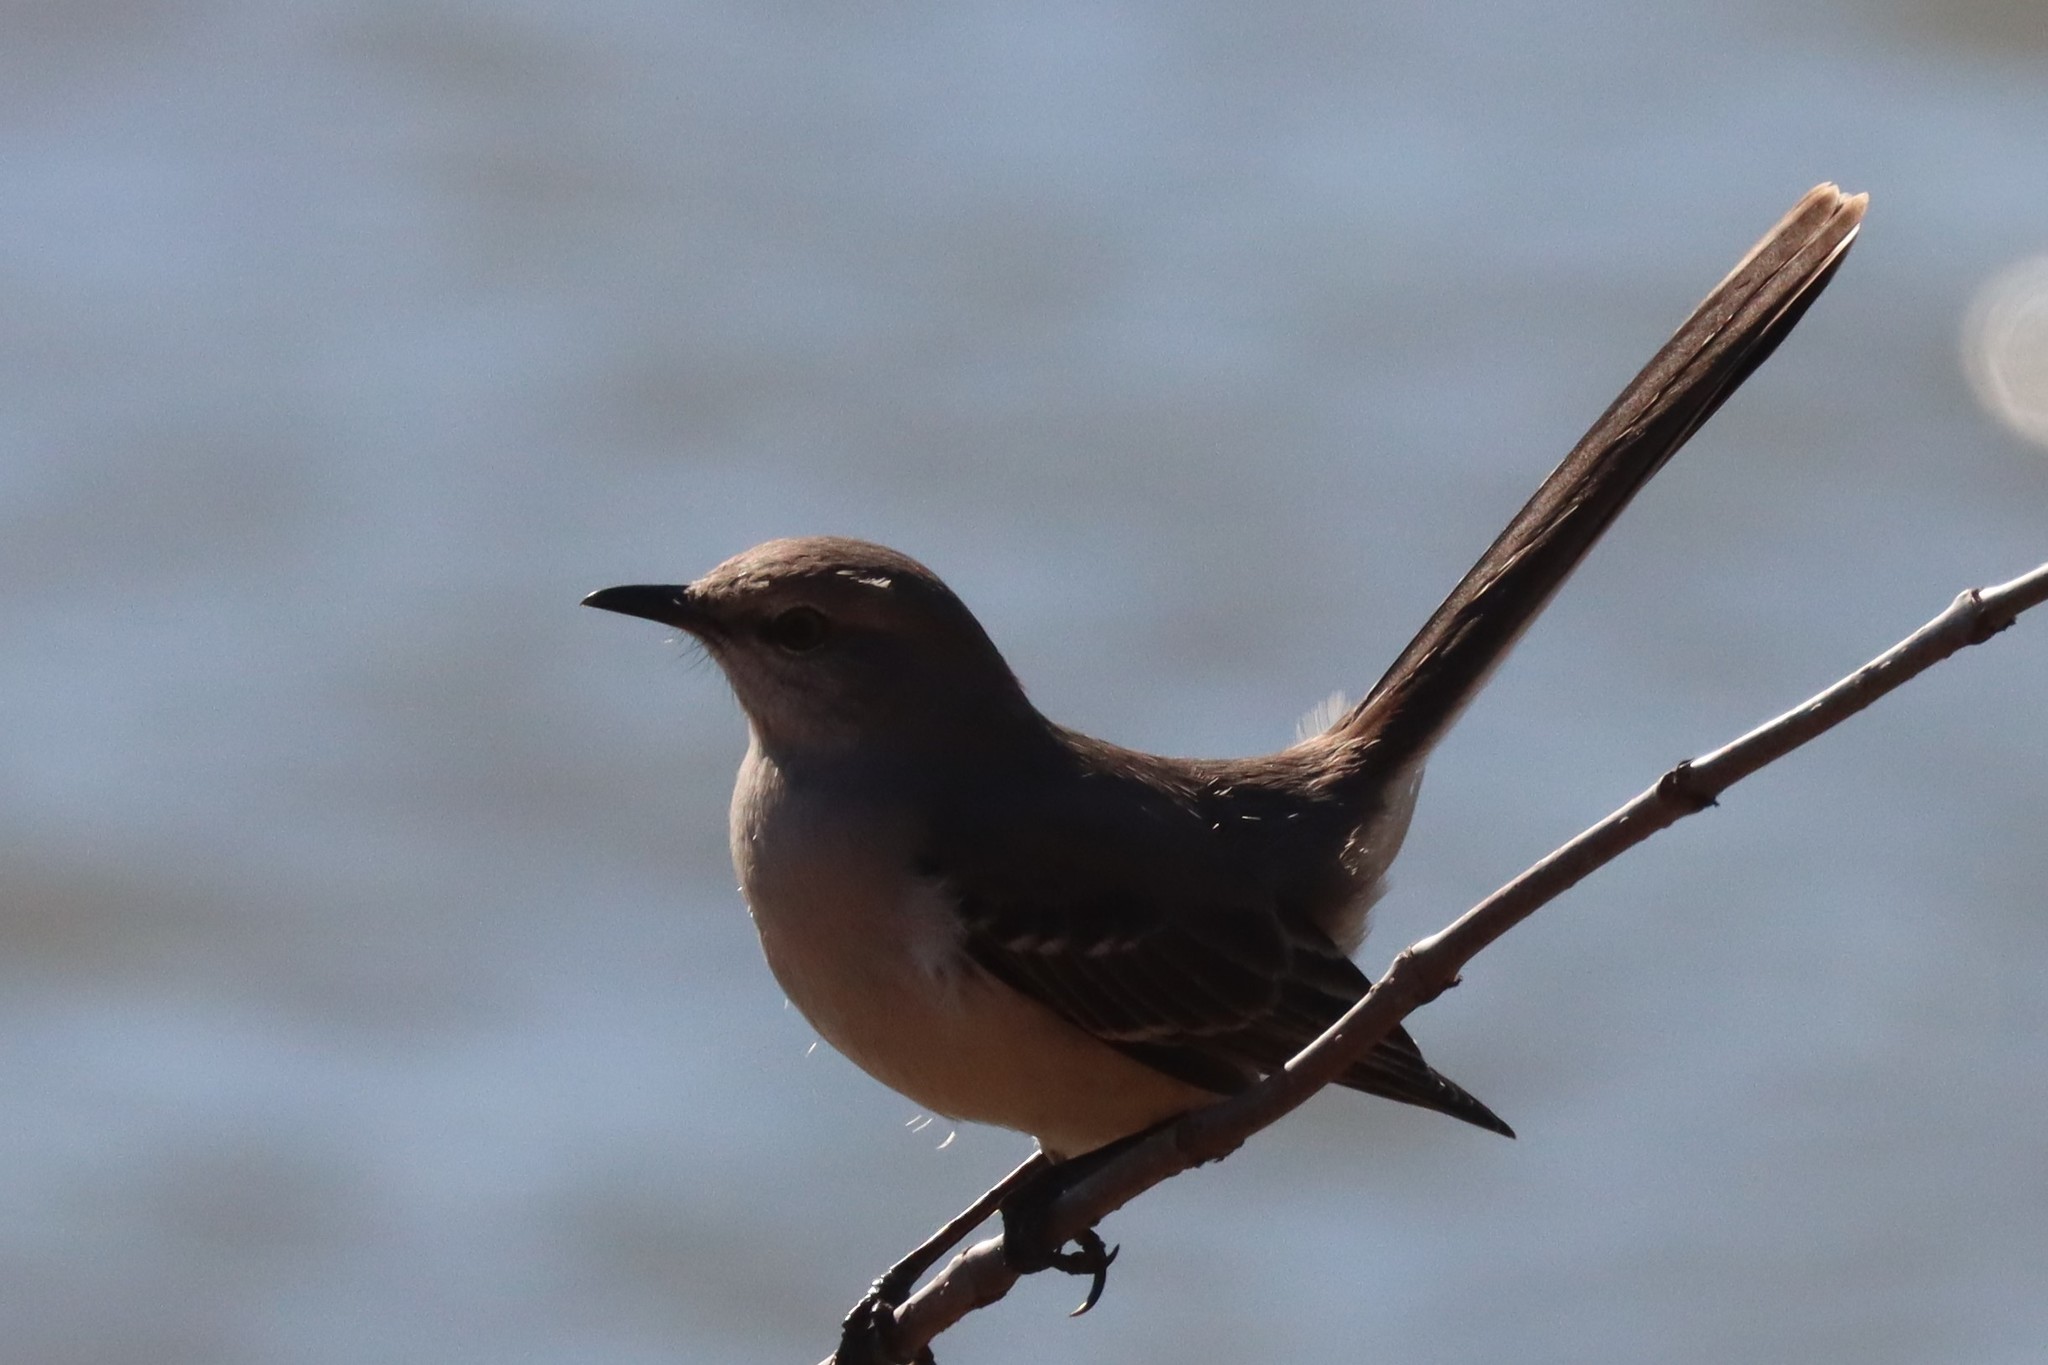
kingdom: Animalia
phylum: Chordata
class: Aves
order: Passeriformes
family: Mimidae
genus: Mimus
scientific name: Mimus polyglottos
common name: Northern mockingbird
